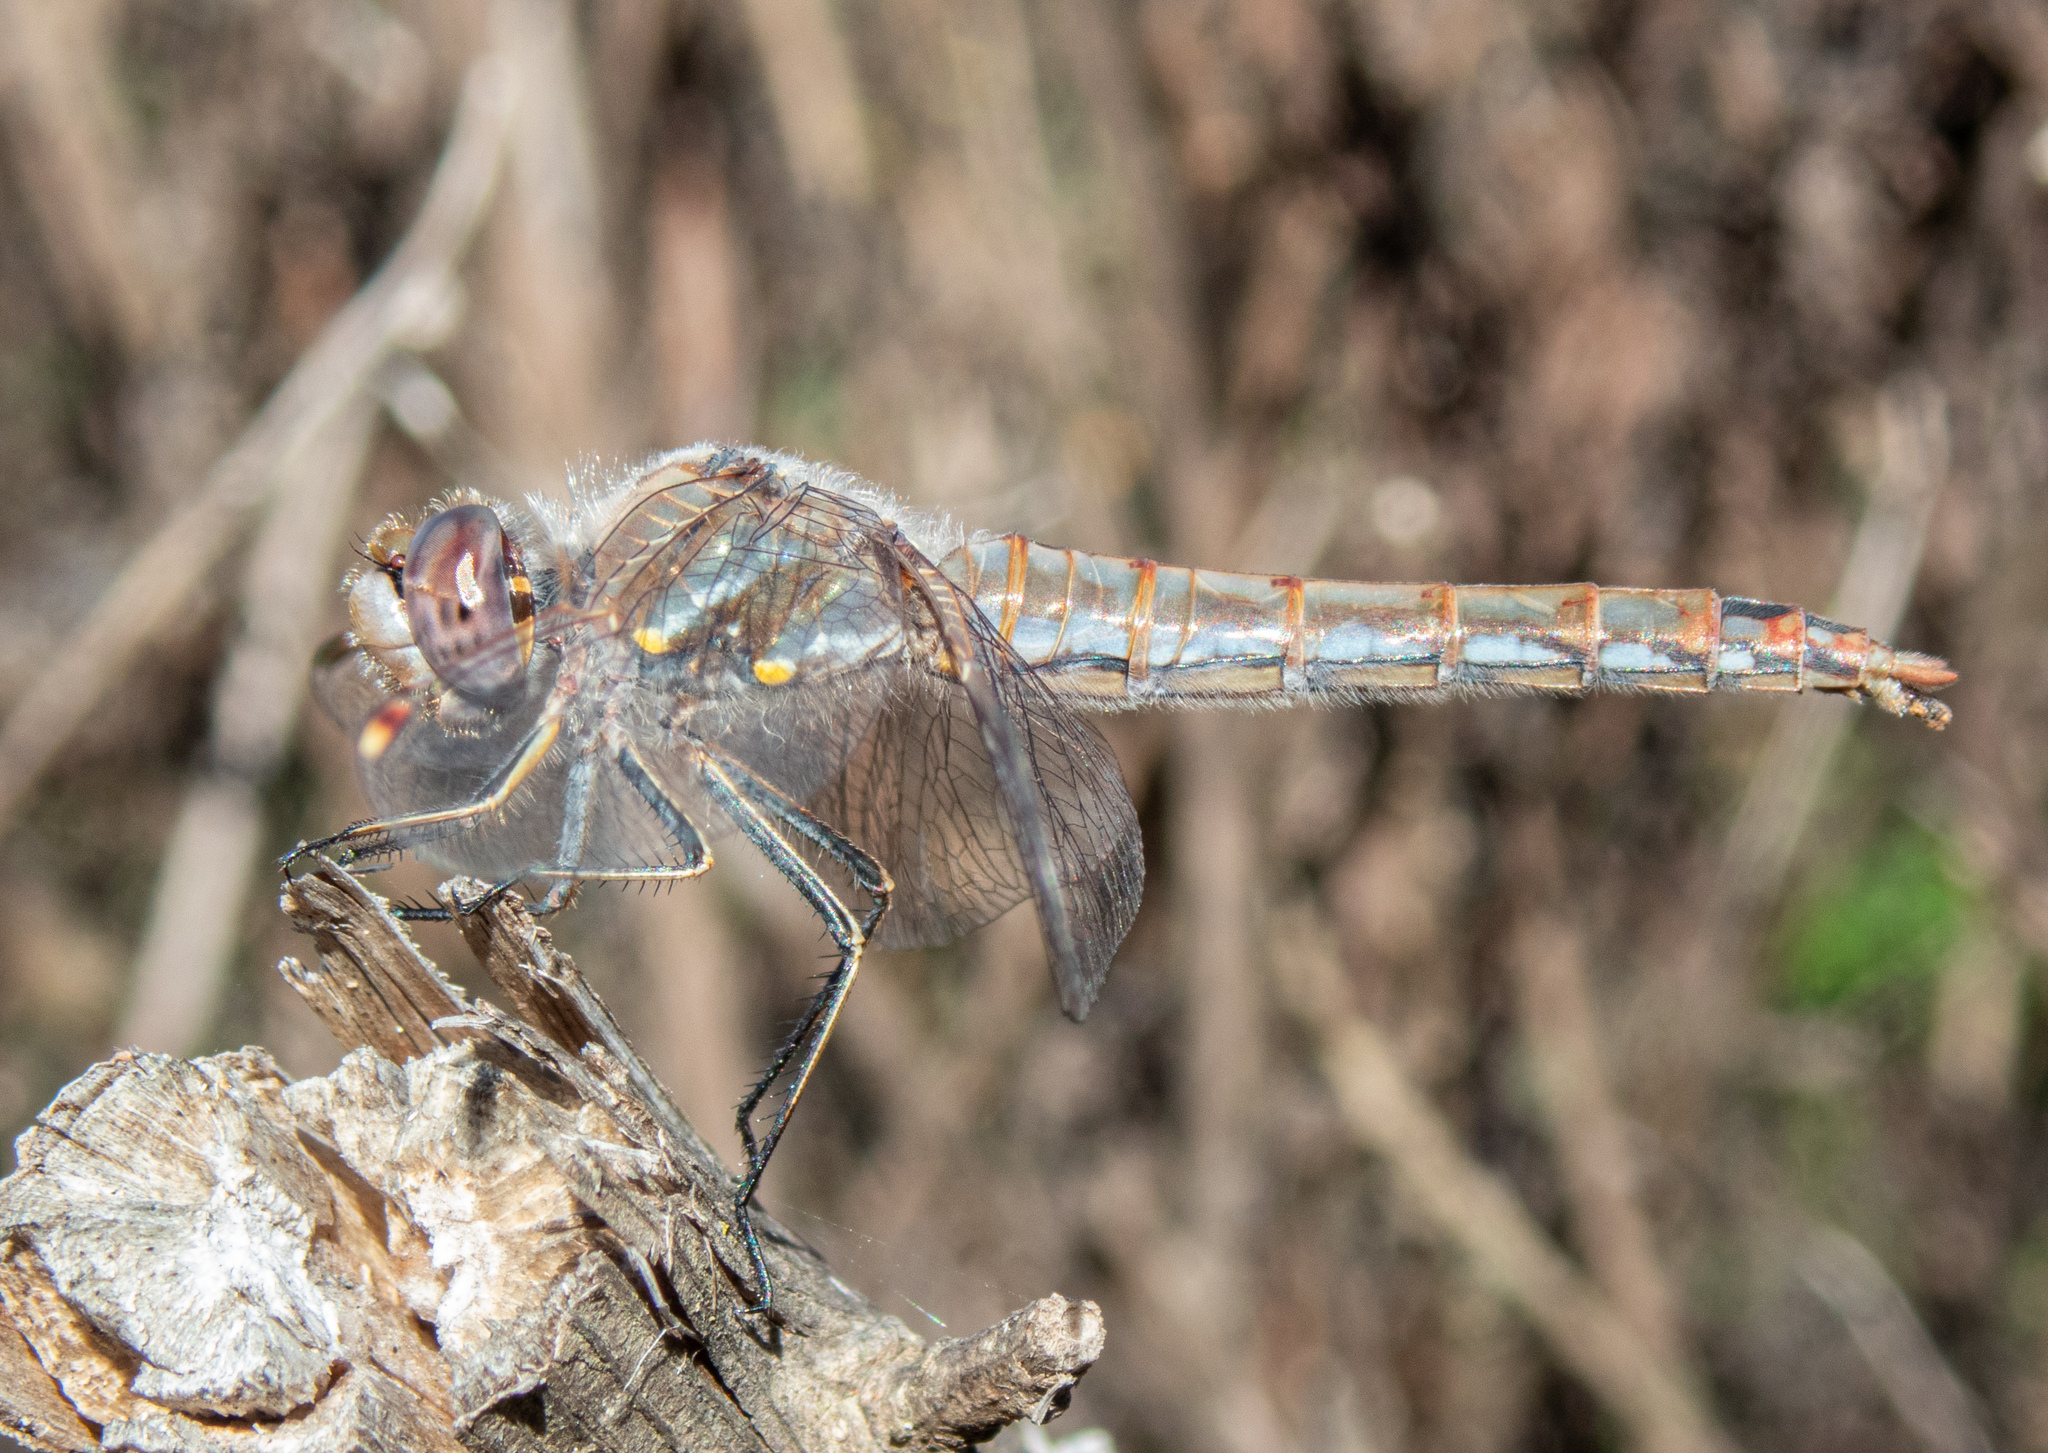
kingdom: Animalia
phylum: Arthropoda
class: Insecta
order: Odonata
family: Libellulidae
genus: Sympetrum
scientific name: Sympetrum corruptum
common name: Variegated meadowhawk
